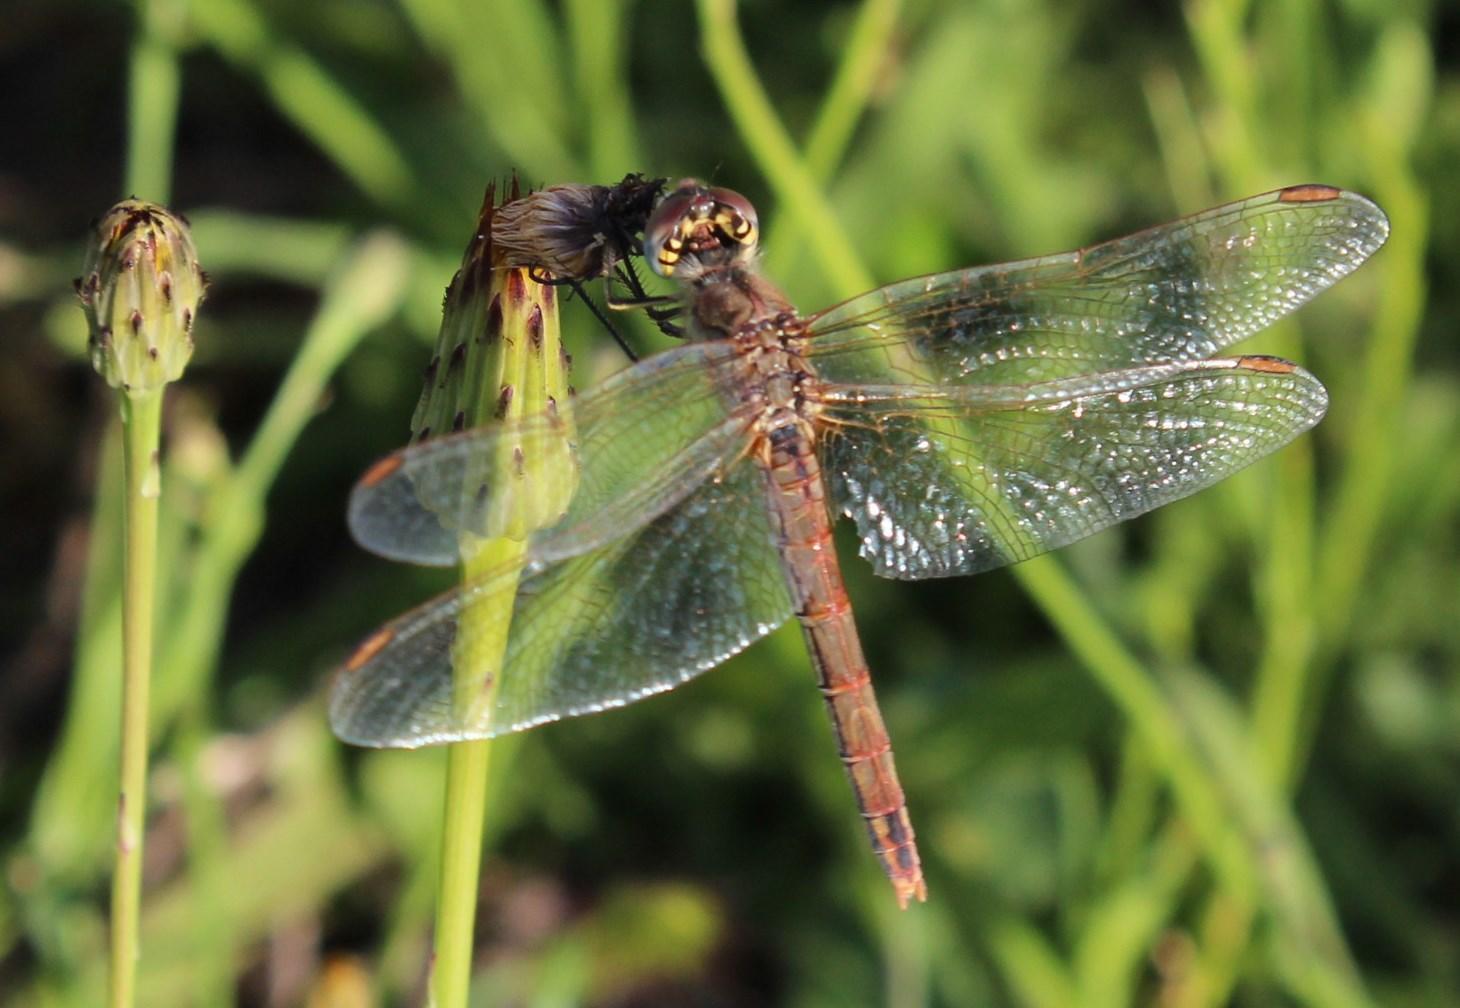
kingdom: Plantae
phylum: Tracheophyta
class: Magnoliopsida
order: Asterales
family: Asteraceae
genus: Hypochaeris
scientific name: Hypochaeris radicata
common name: Flatweed
